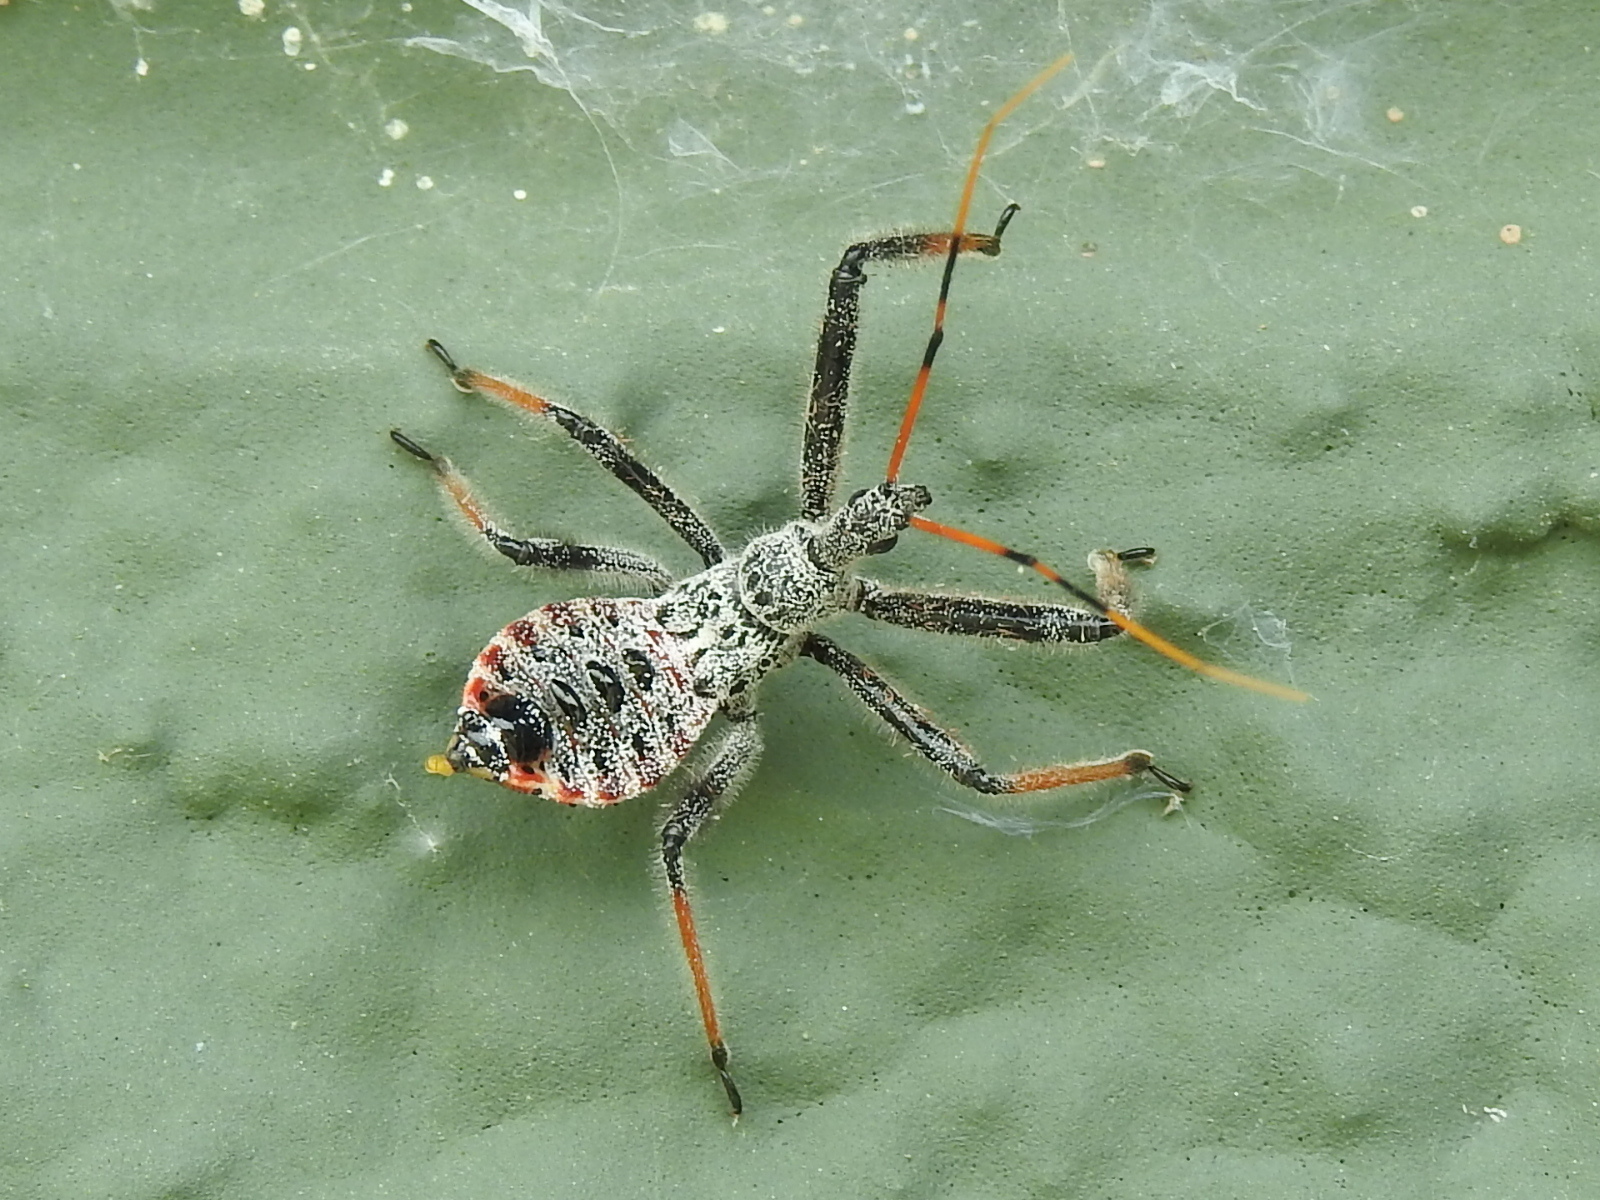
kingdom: Animalia
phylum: Arthropoda
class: Insecta
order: Hemiptera
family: Reduviidae
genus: Arilus
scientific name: Arilus cristatus
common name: North american wheel bug
